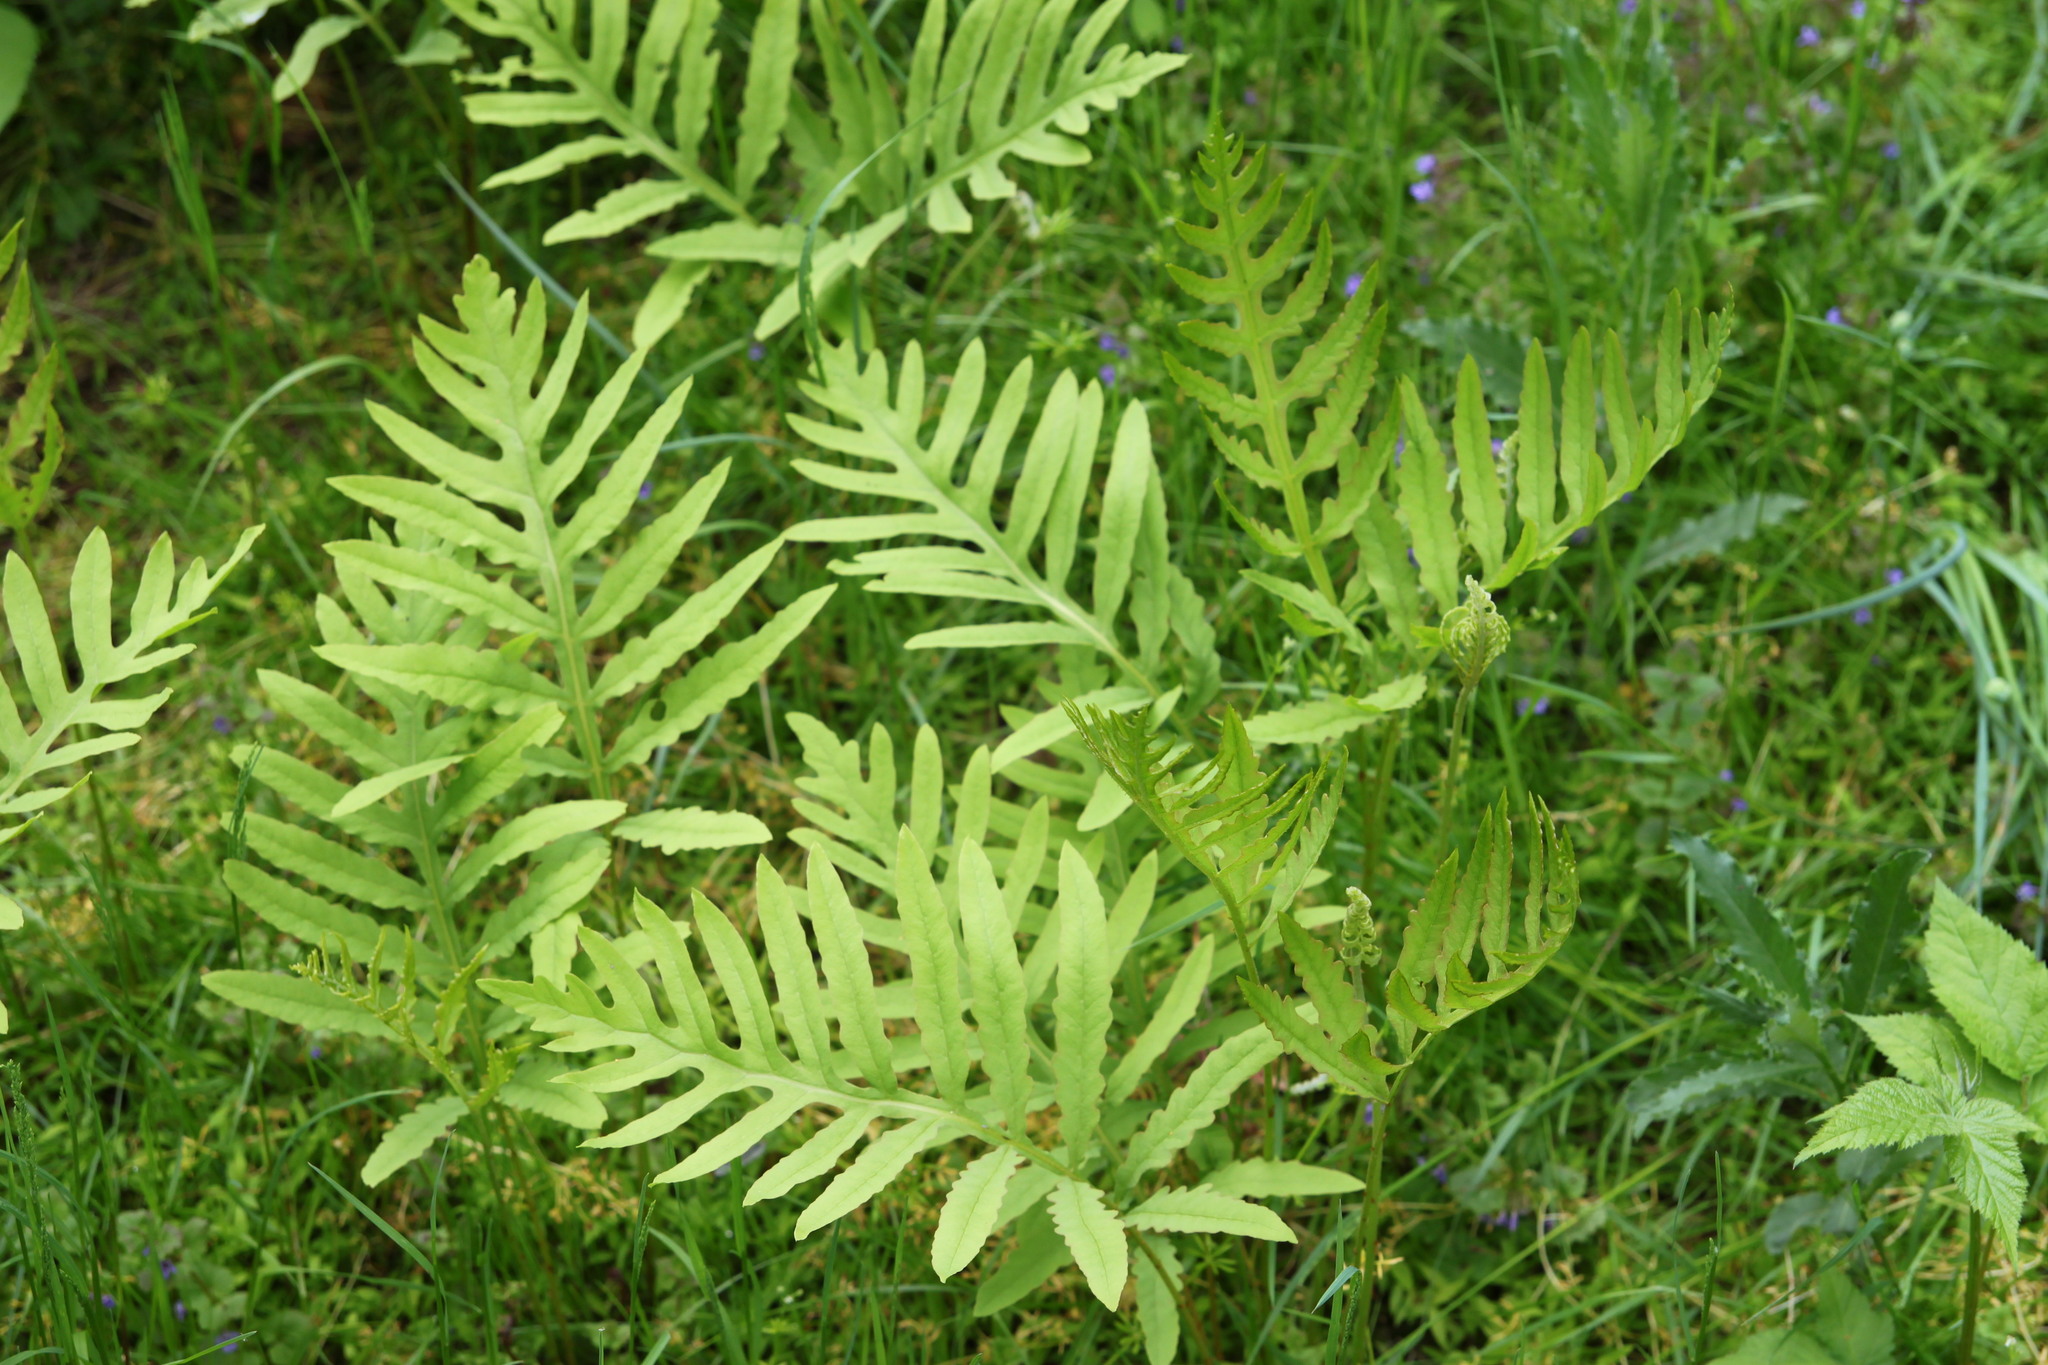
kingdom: Plantae
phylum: Tracheophyta
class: Polypodiopsida
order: Polypodiales
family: Onocleaceae
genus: Onoclea
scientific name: Onoclea sensibilis
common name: Sensitive fern
